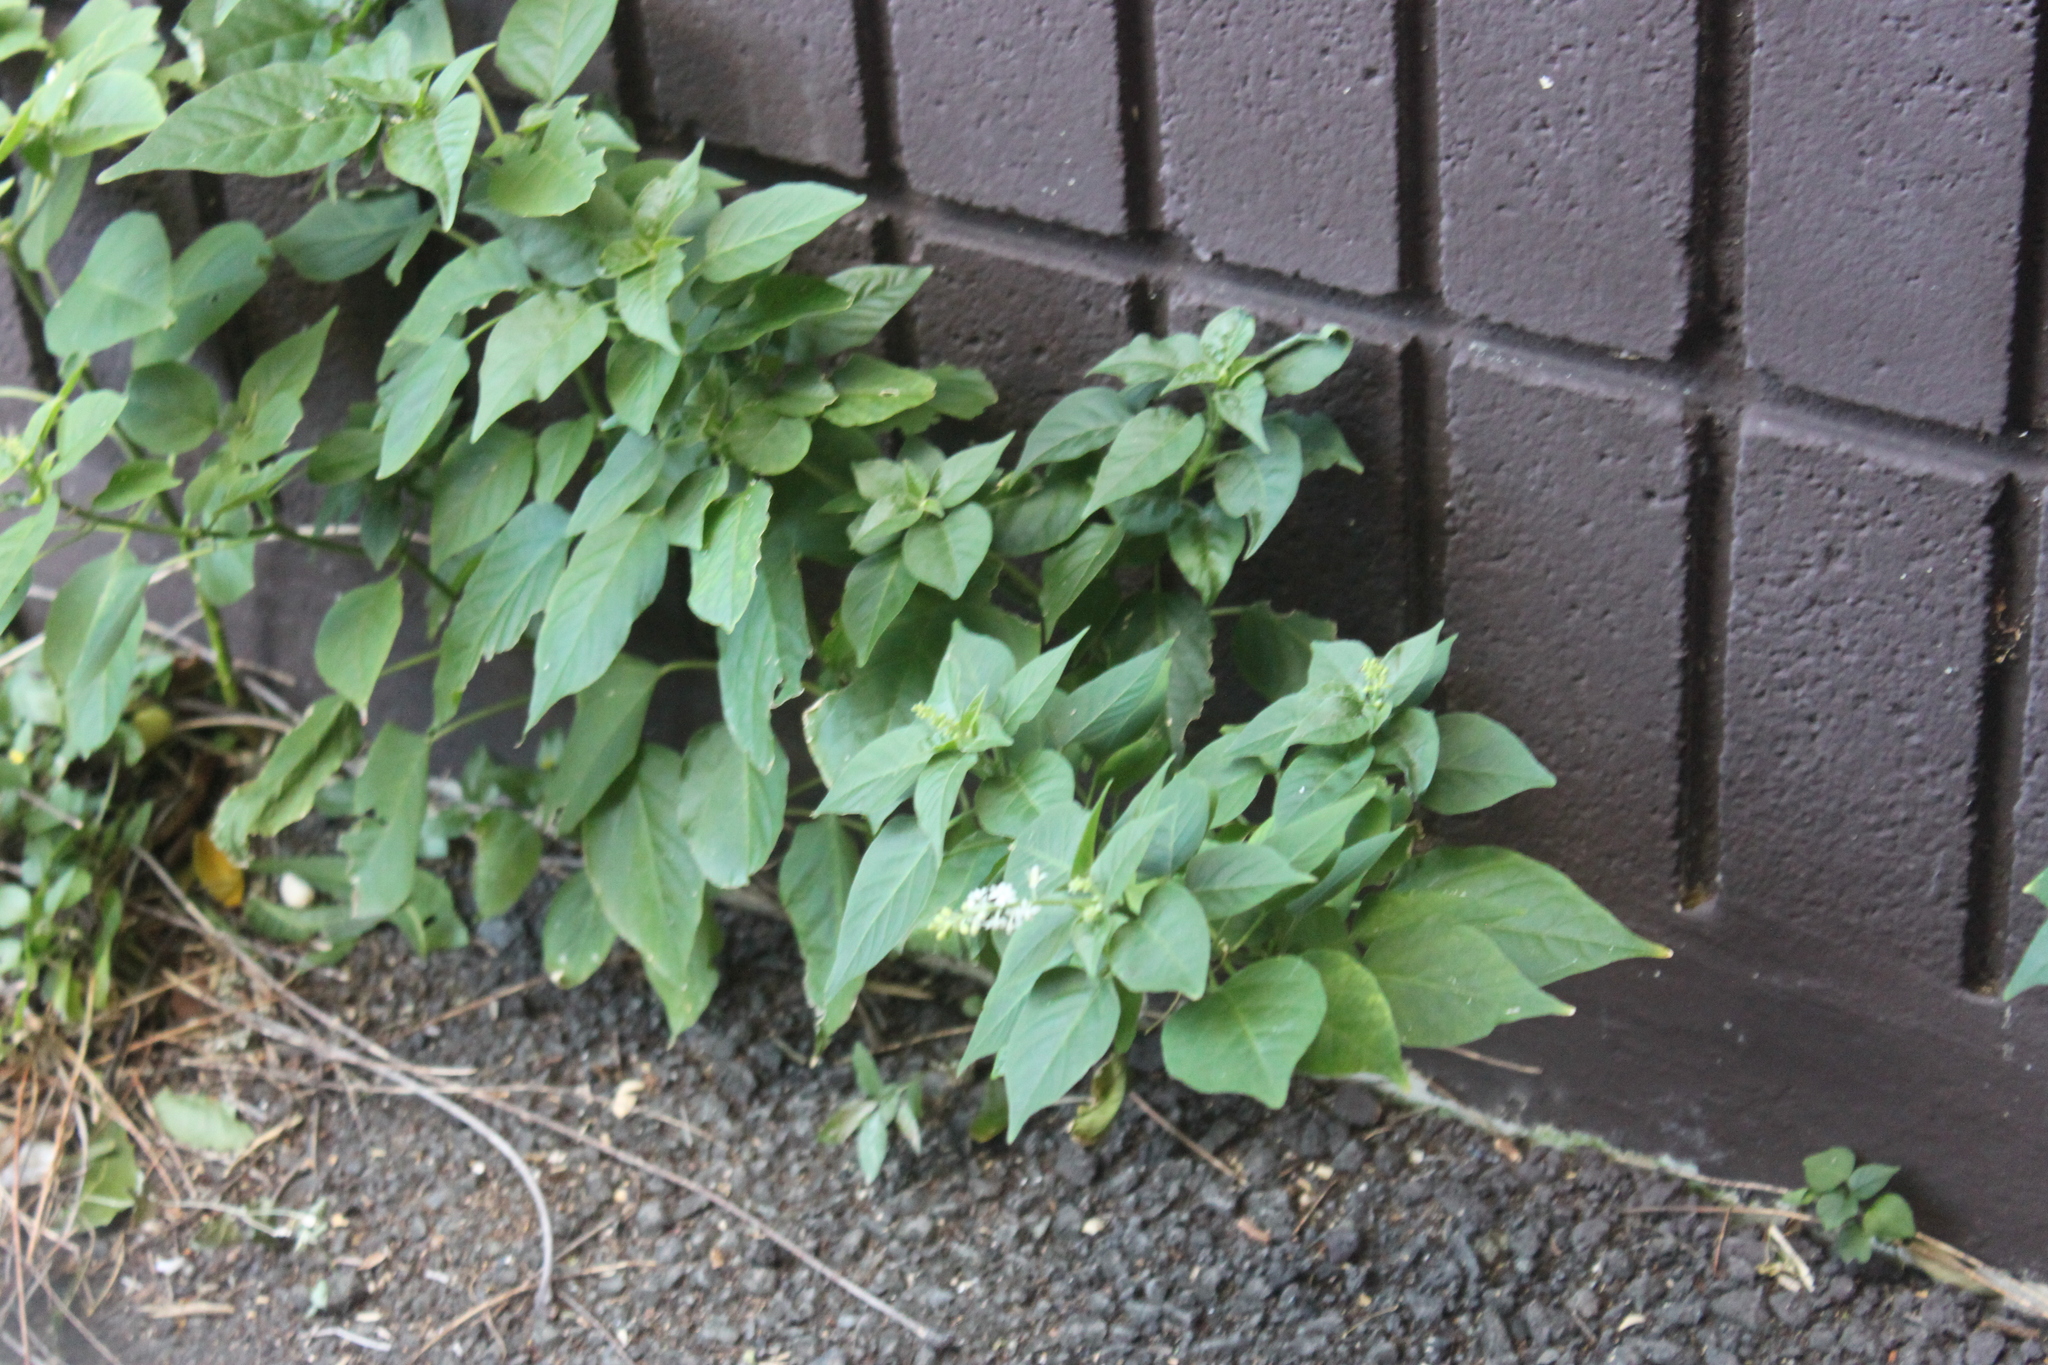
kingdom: Plantae
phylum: Tracheophyta
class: Magnoliopsida
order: Caryophyllales
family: Phytolaccaceae
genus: Rivina
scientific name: Rivina humilis
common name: Rougeplant
